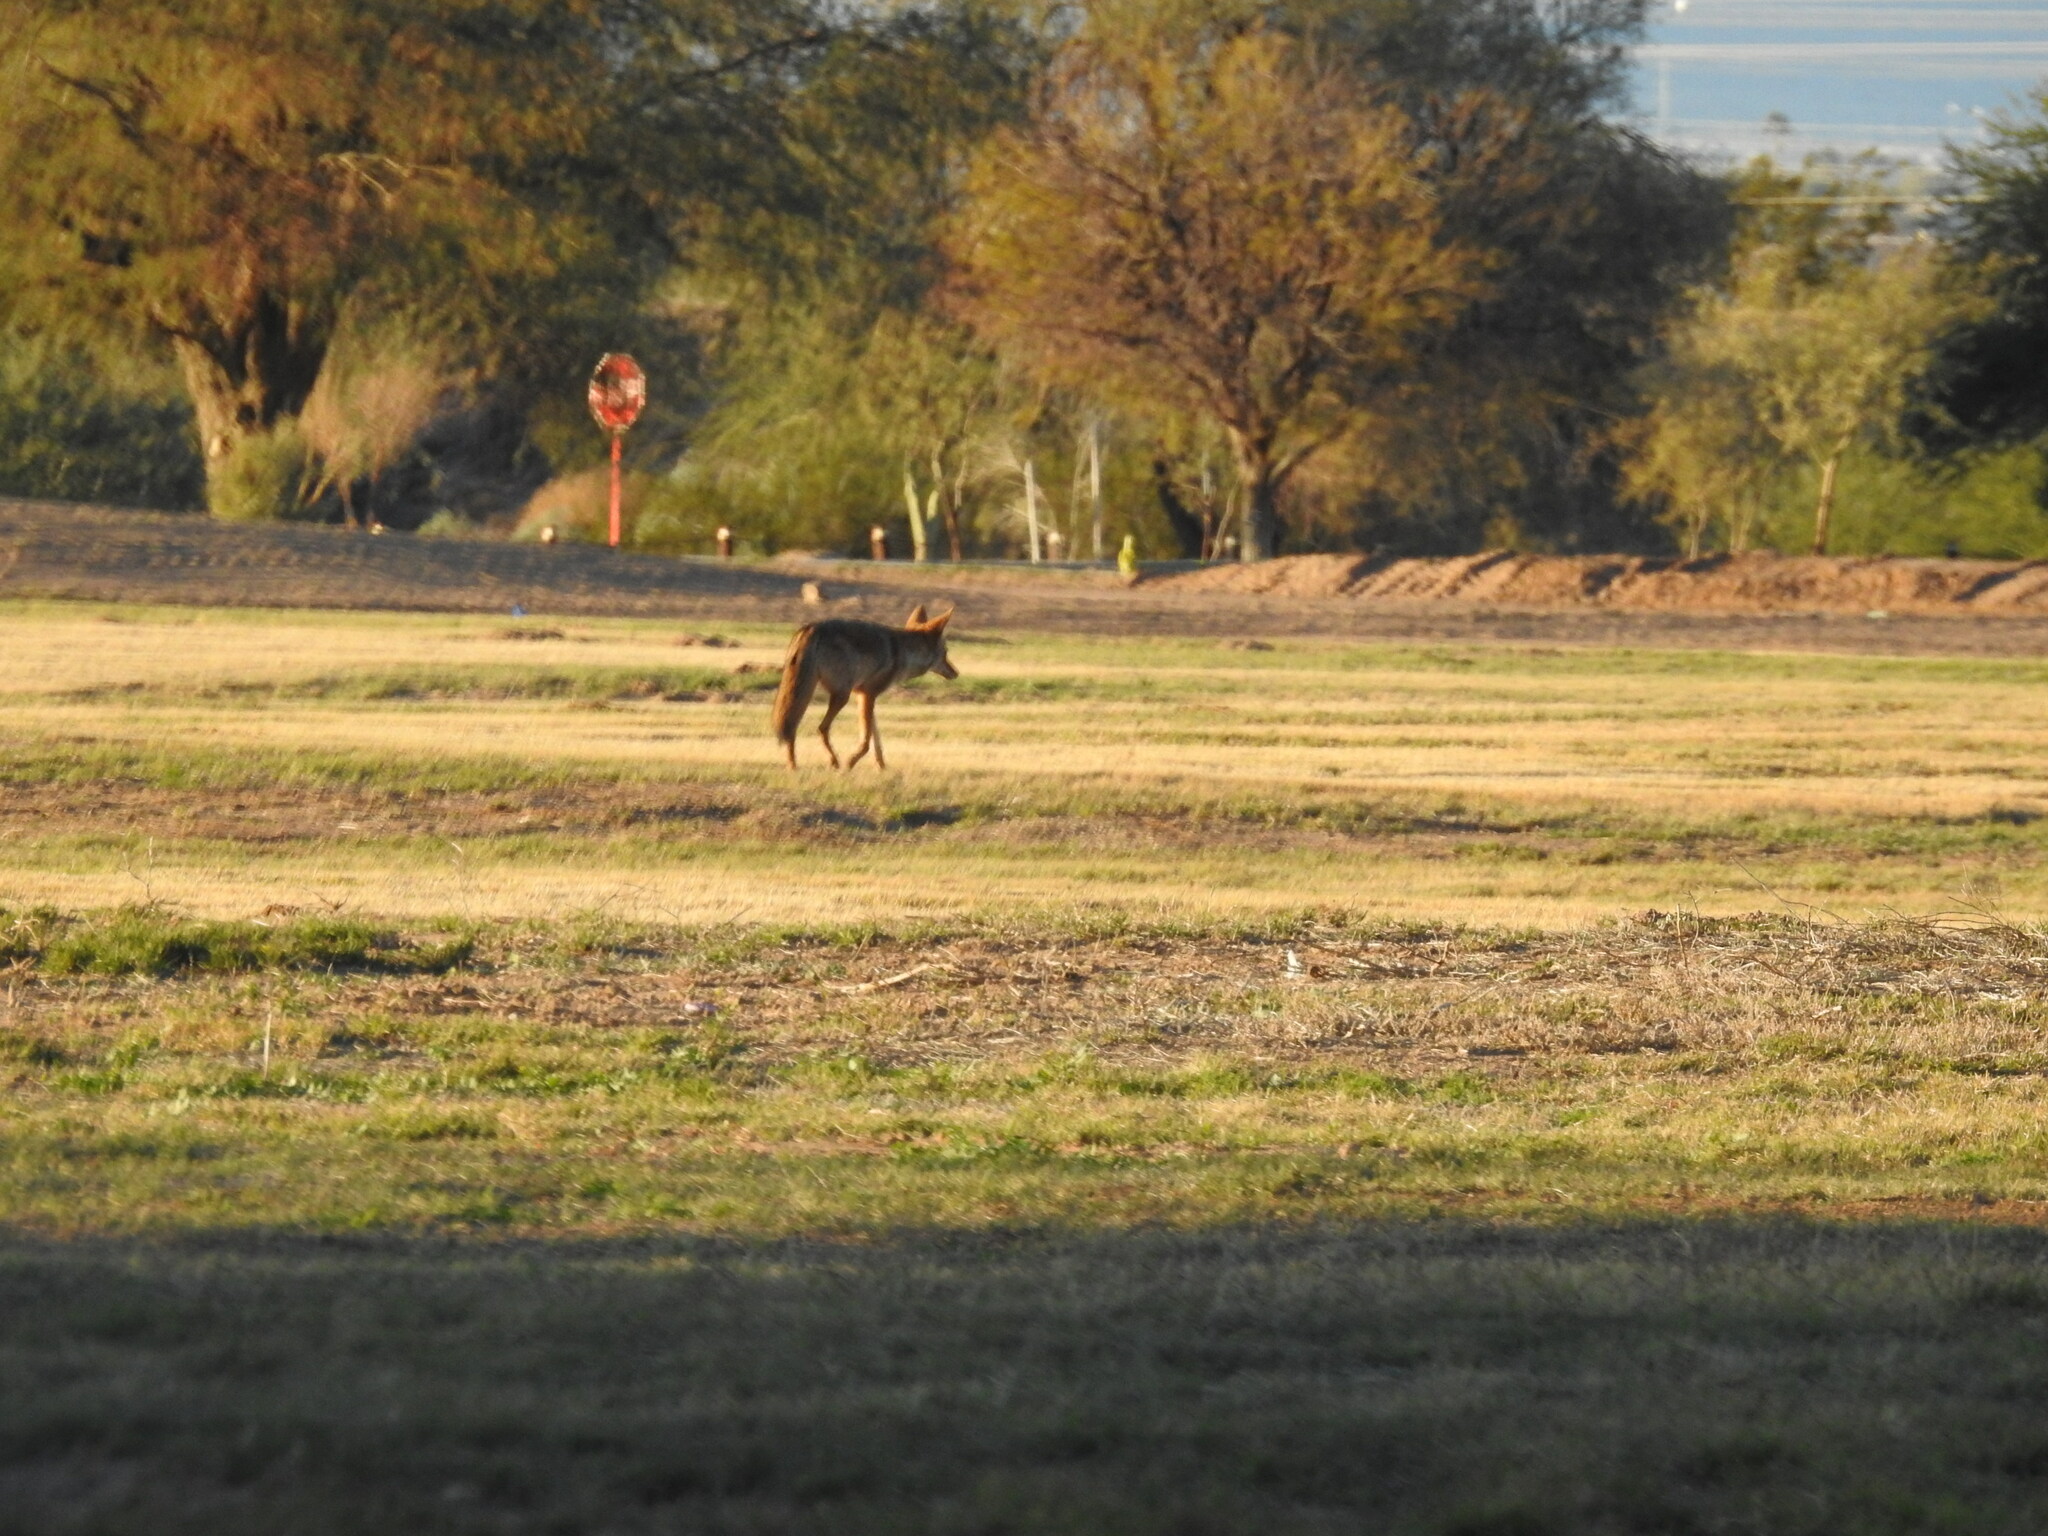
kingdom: Animalia
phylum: Chordata
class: Mammalia
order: Carnivora
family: Canidae
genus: Canis
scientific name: Canis latrans
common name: Coyote
